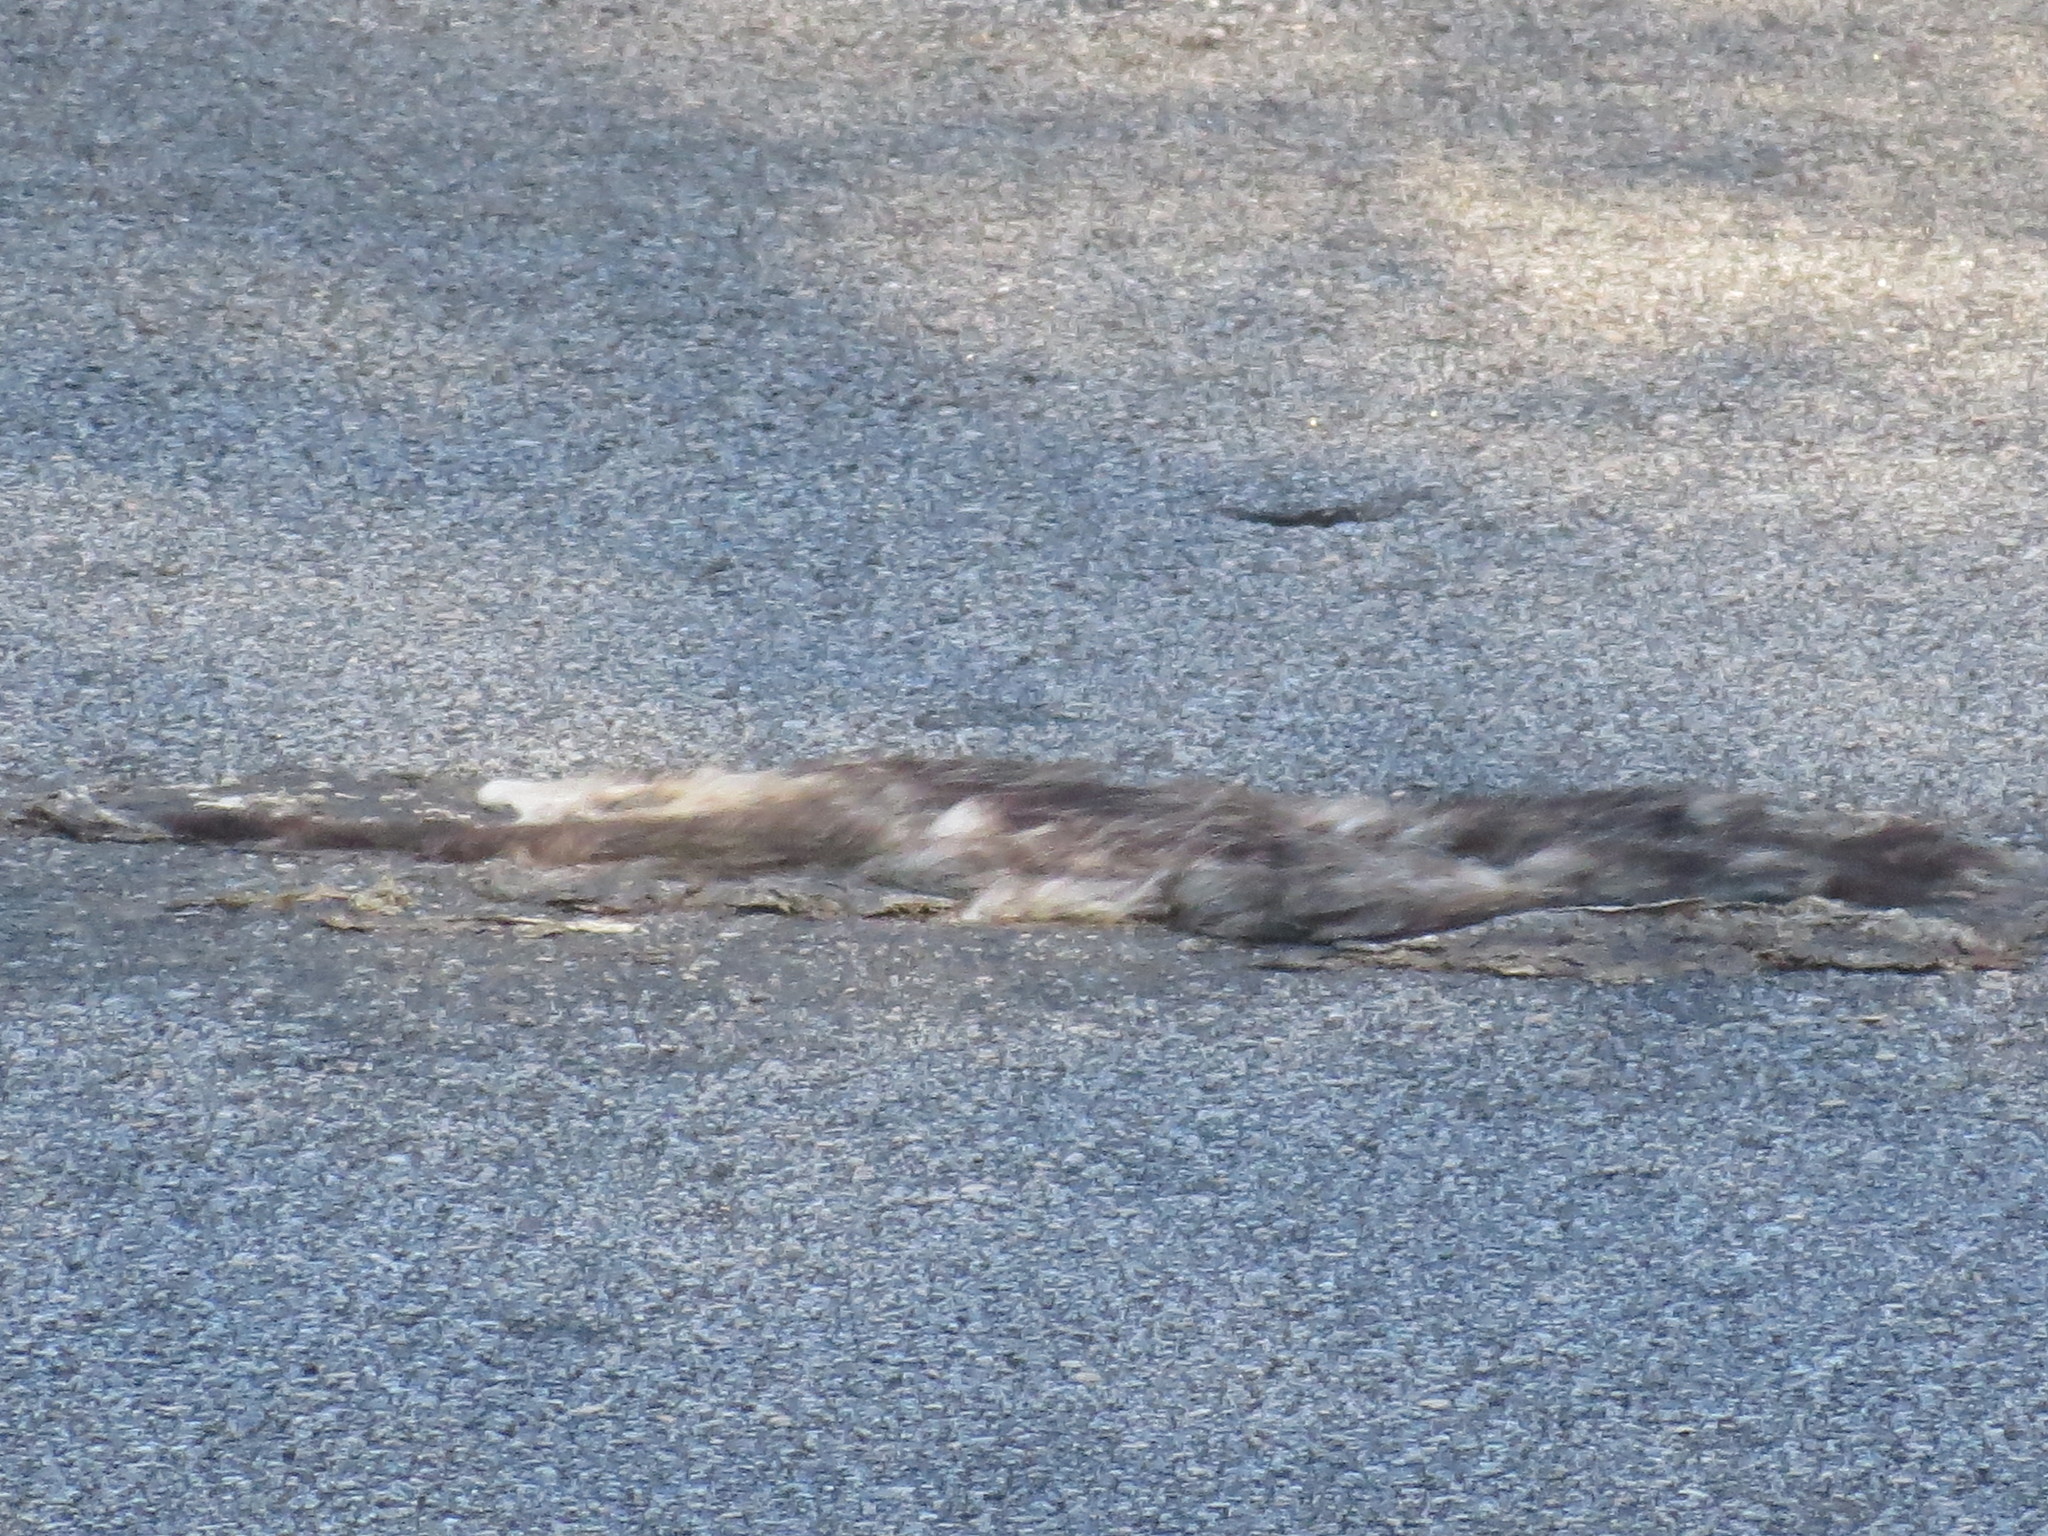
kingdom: Animalia
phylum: Chordata
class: Mammalia
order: Didelphimorphia
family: Didelphidae
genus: Didelphis
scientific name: Didelphis virginiana
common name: Virginia opossum
